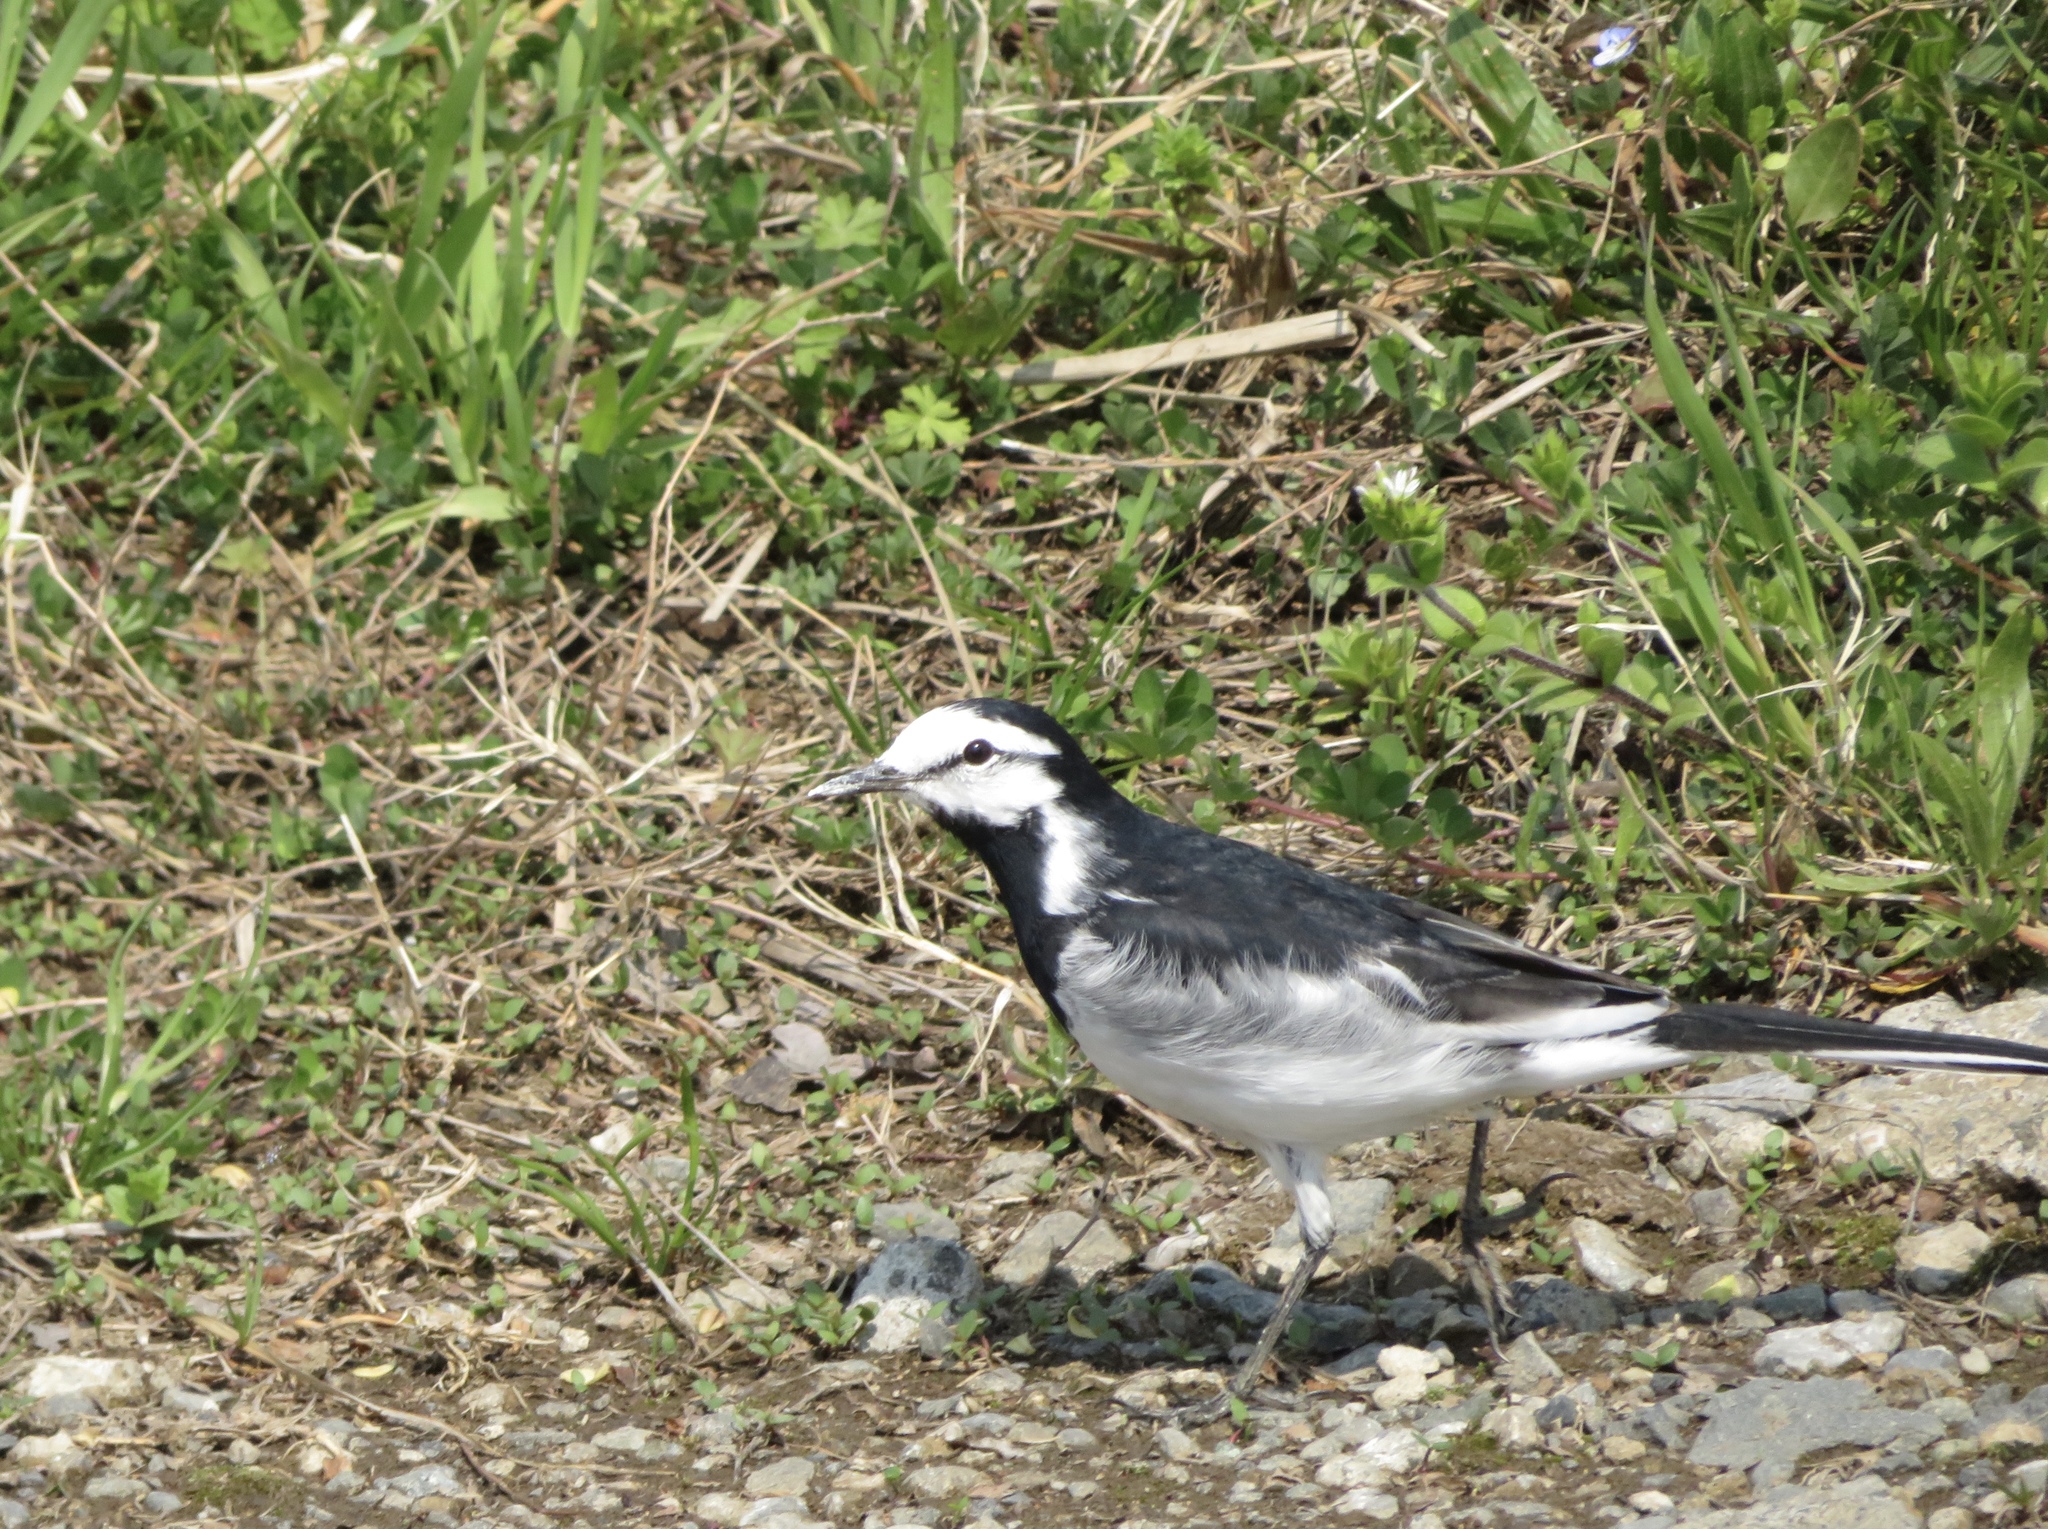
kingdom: Animalia
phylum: Chordata
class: Aves
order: Passeriformes
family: Motacillidae
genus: Motacilla
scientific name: Motacilla alba
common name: White wagtail
